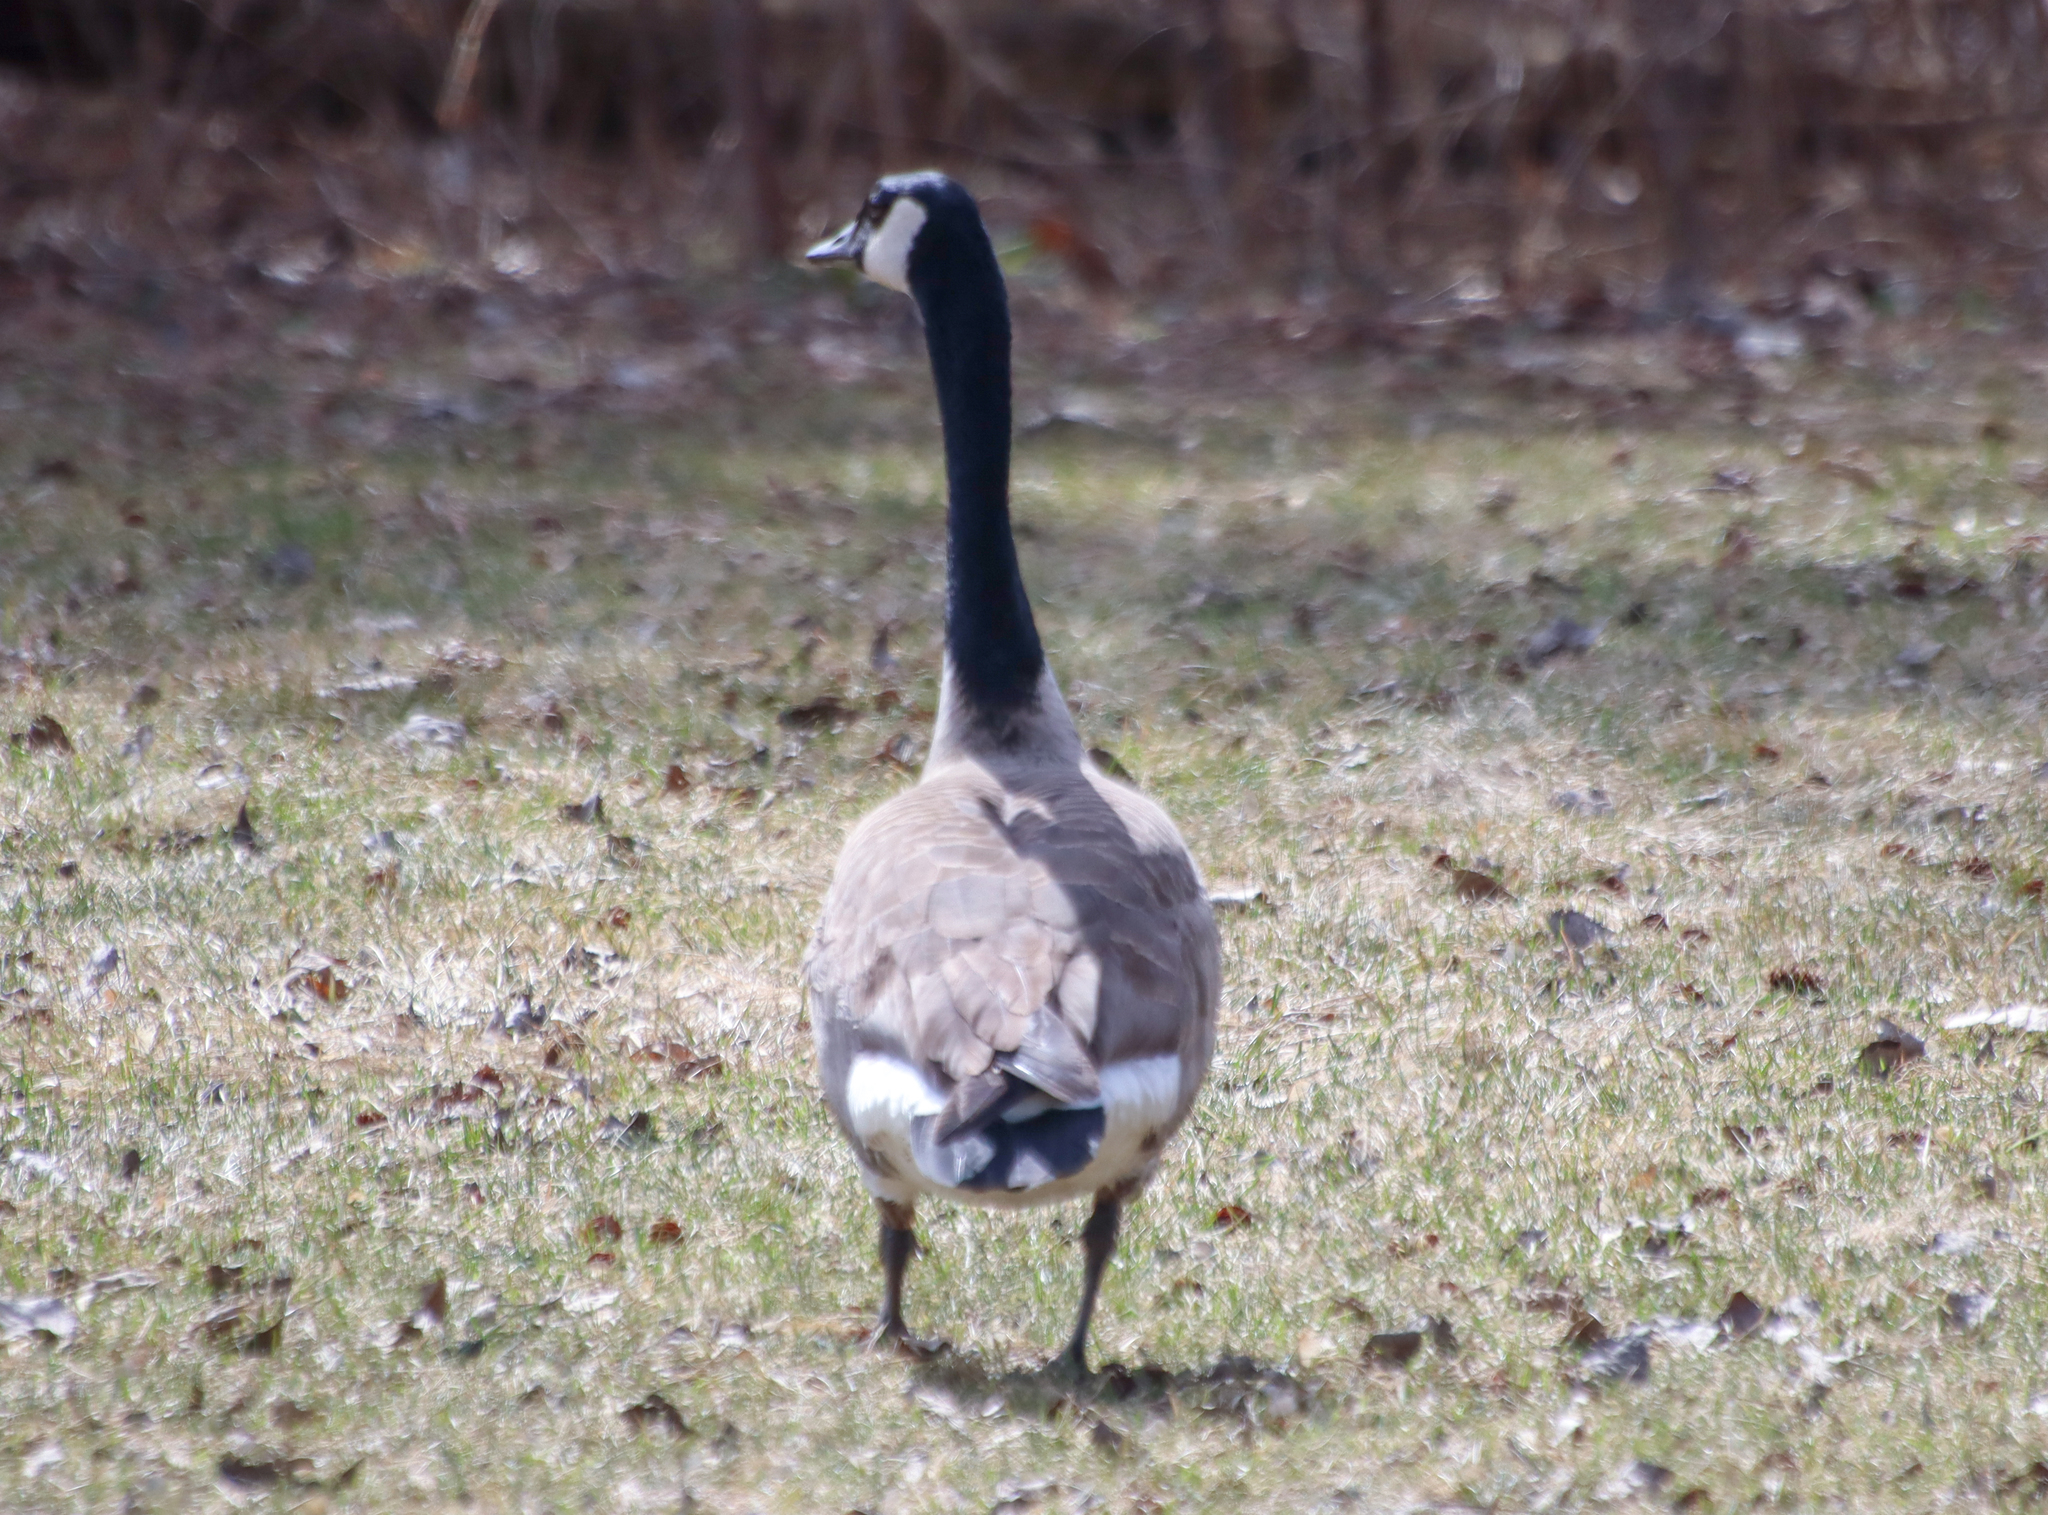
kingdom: Animalia
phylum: Chordata
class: Aves
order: Anseriformes
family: Anatidae
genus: Branta
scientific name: Branta canadensis
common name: Canada goose
